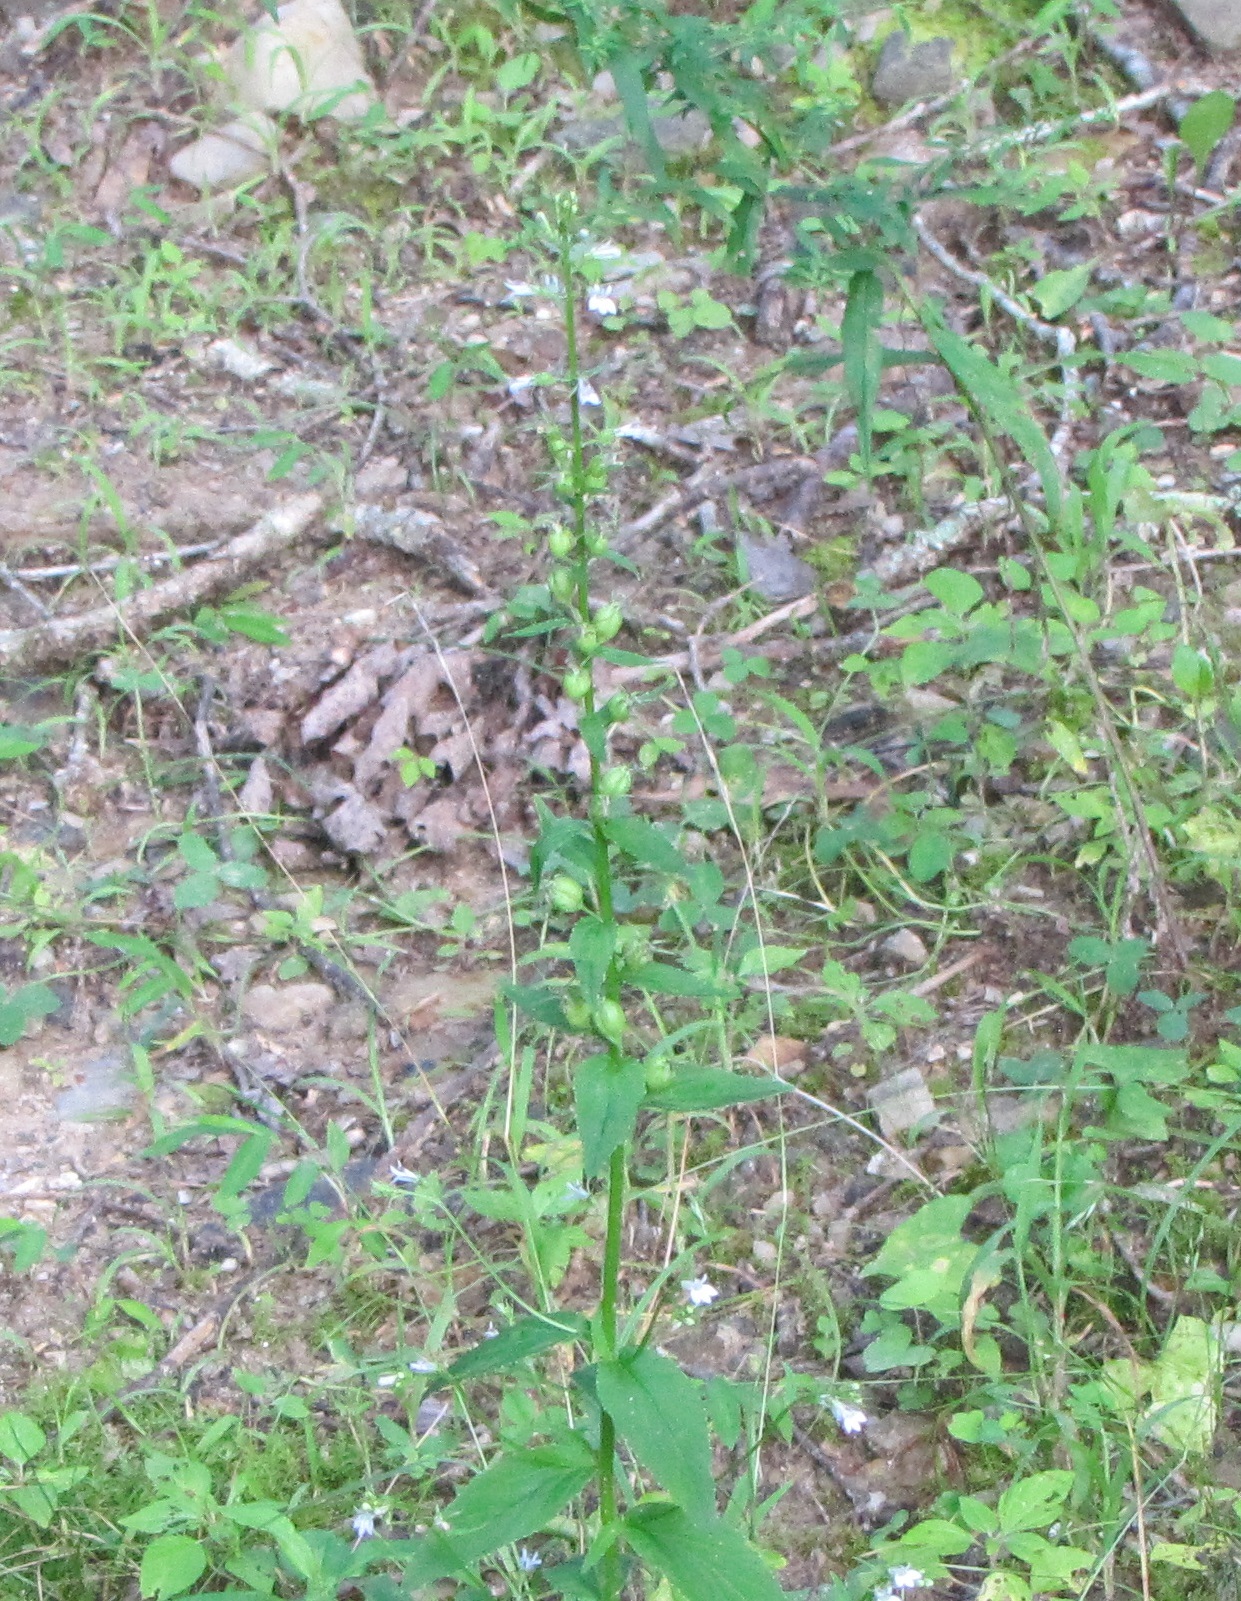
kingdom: Plantae
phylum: Tracheophyta
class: Magnoliopsida
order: Asterales
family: Campanulaceae
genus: Lobelia
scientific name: Lobelia inflata
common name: Indian tobacco
